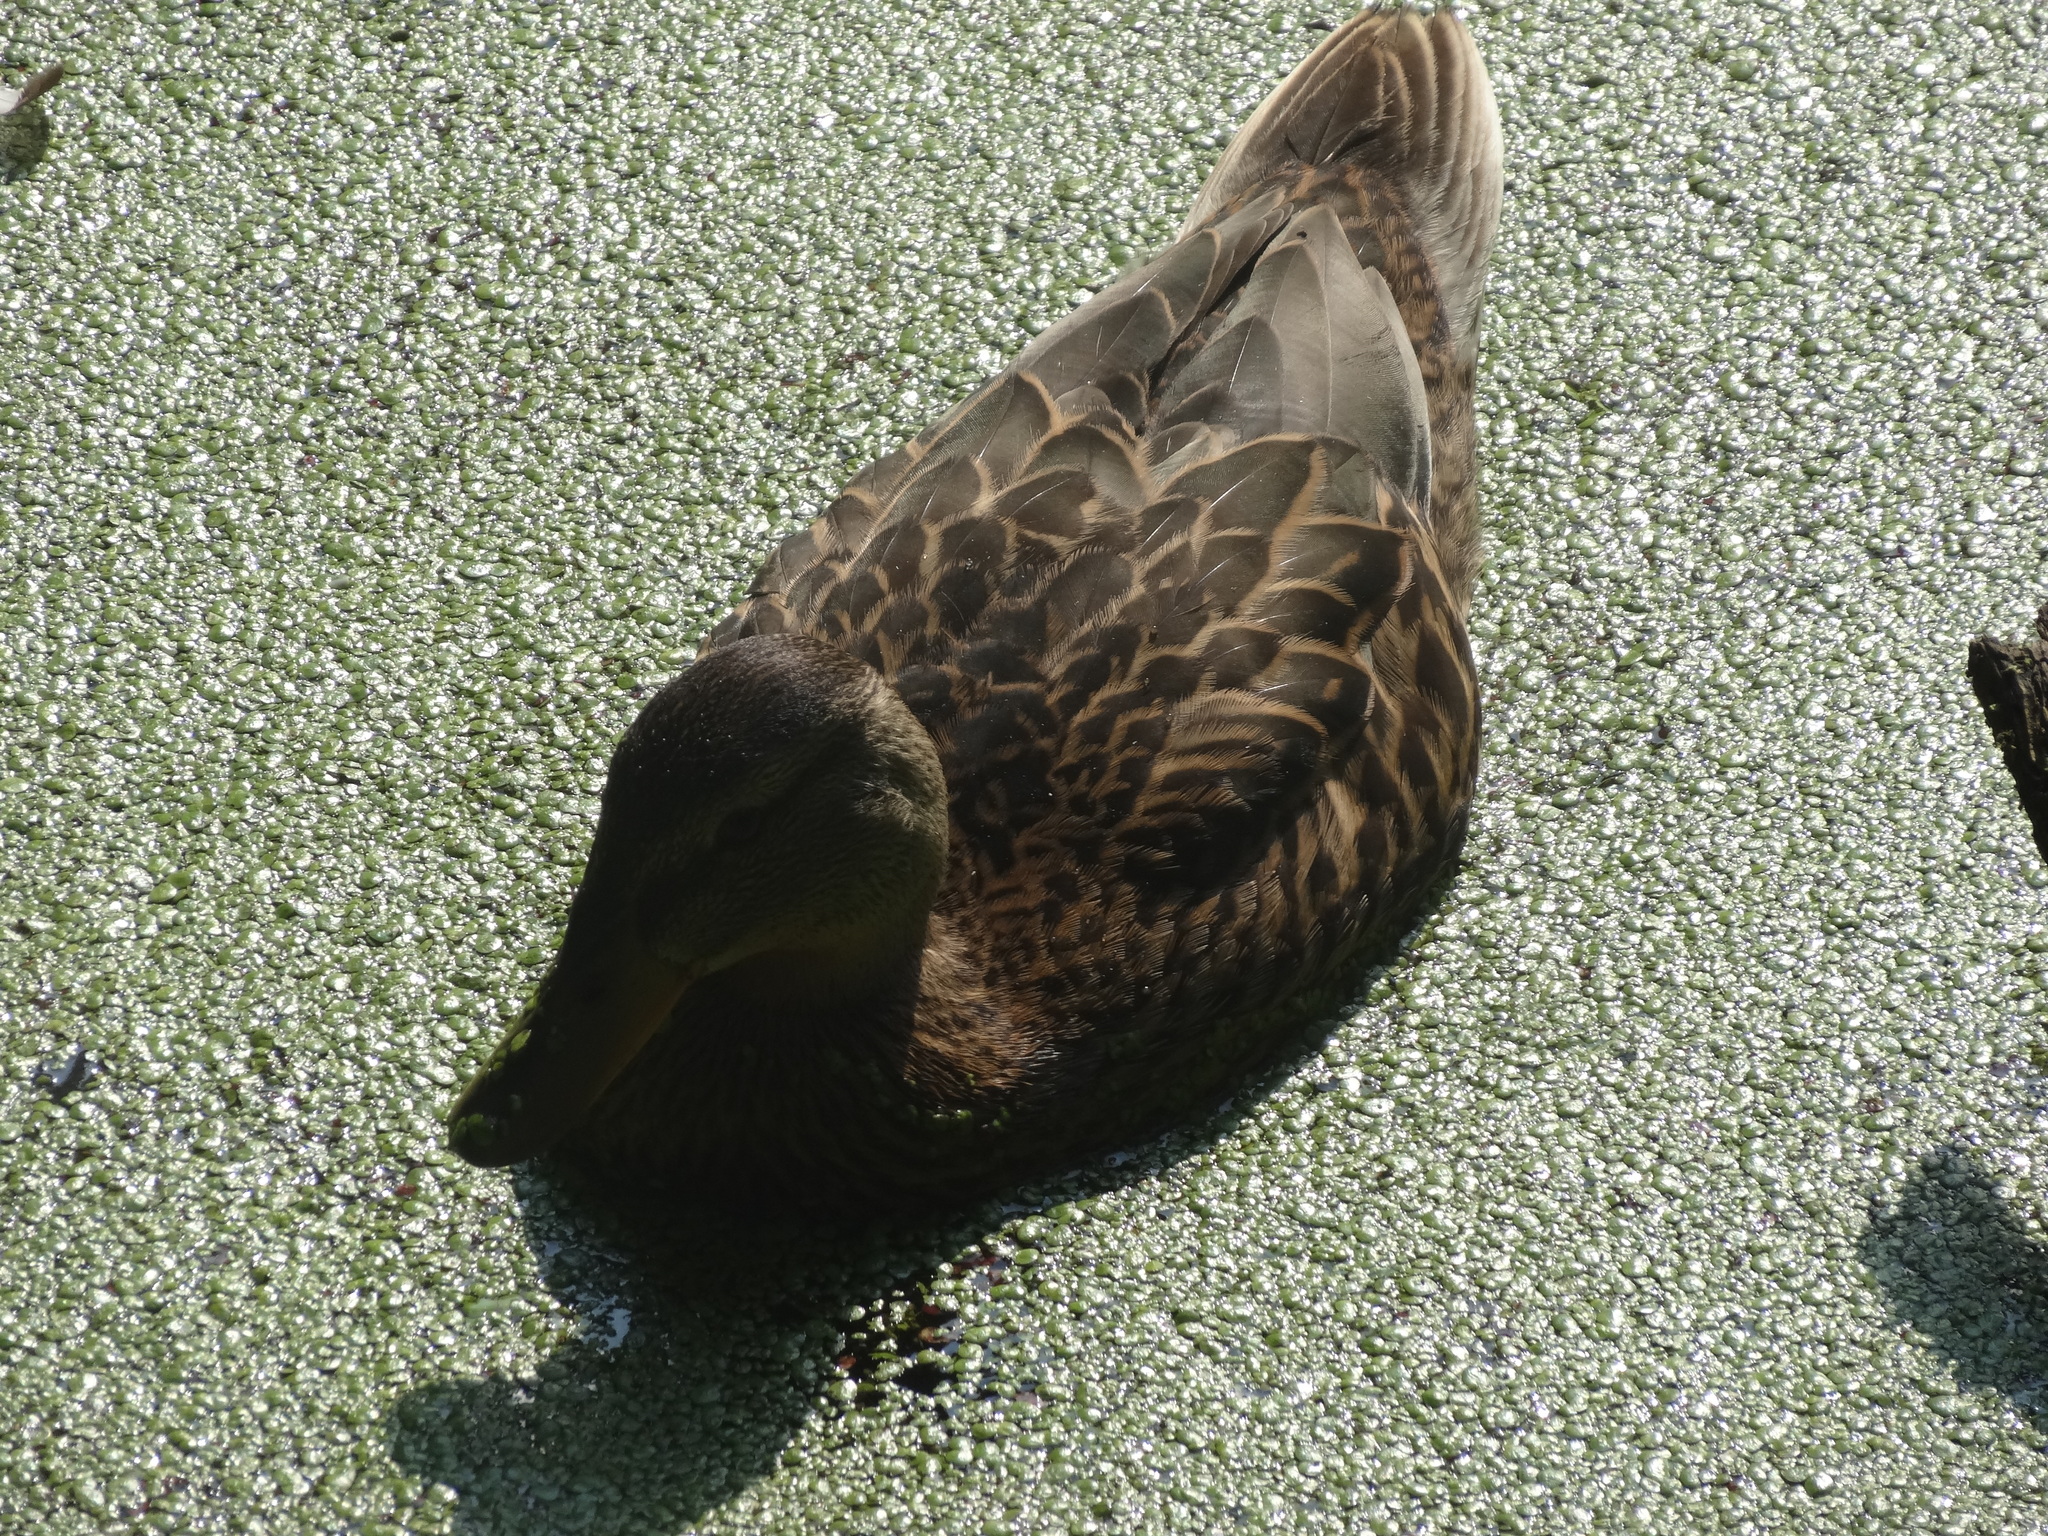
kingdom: Animalia
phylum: Chordata
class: Aves
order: Anseriformes
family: Anatidae
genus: Anas
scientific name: Anas platyrhynchos
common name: Mallard
